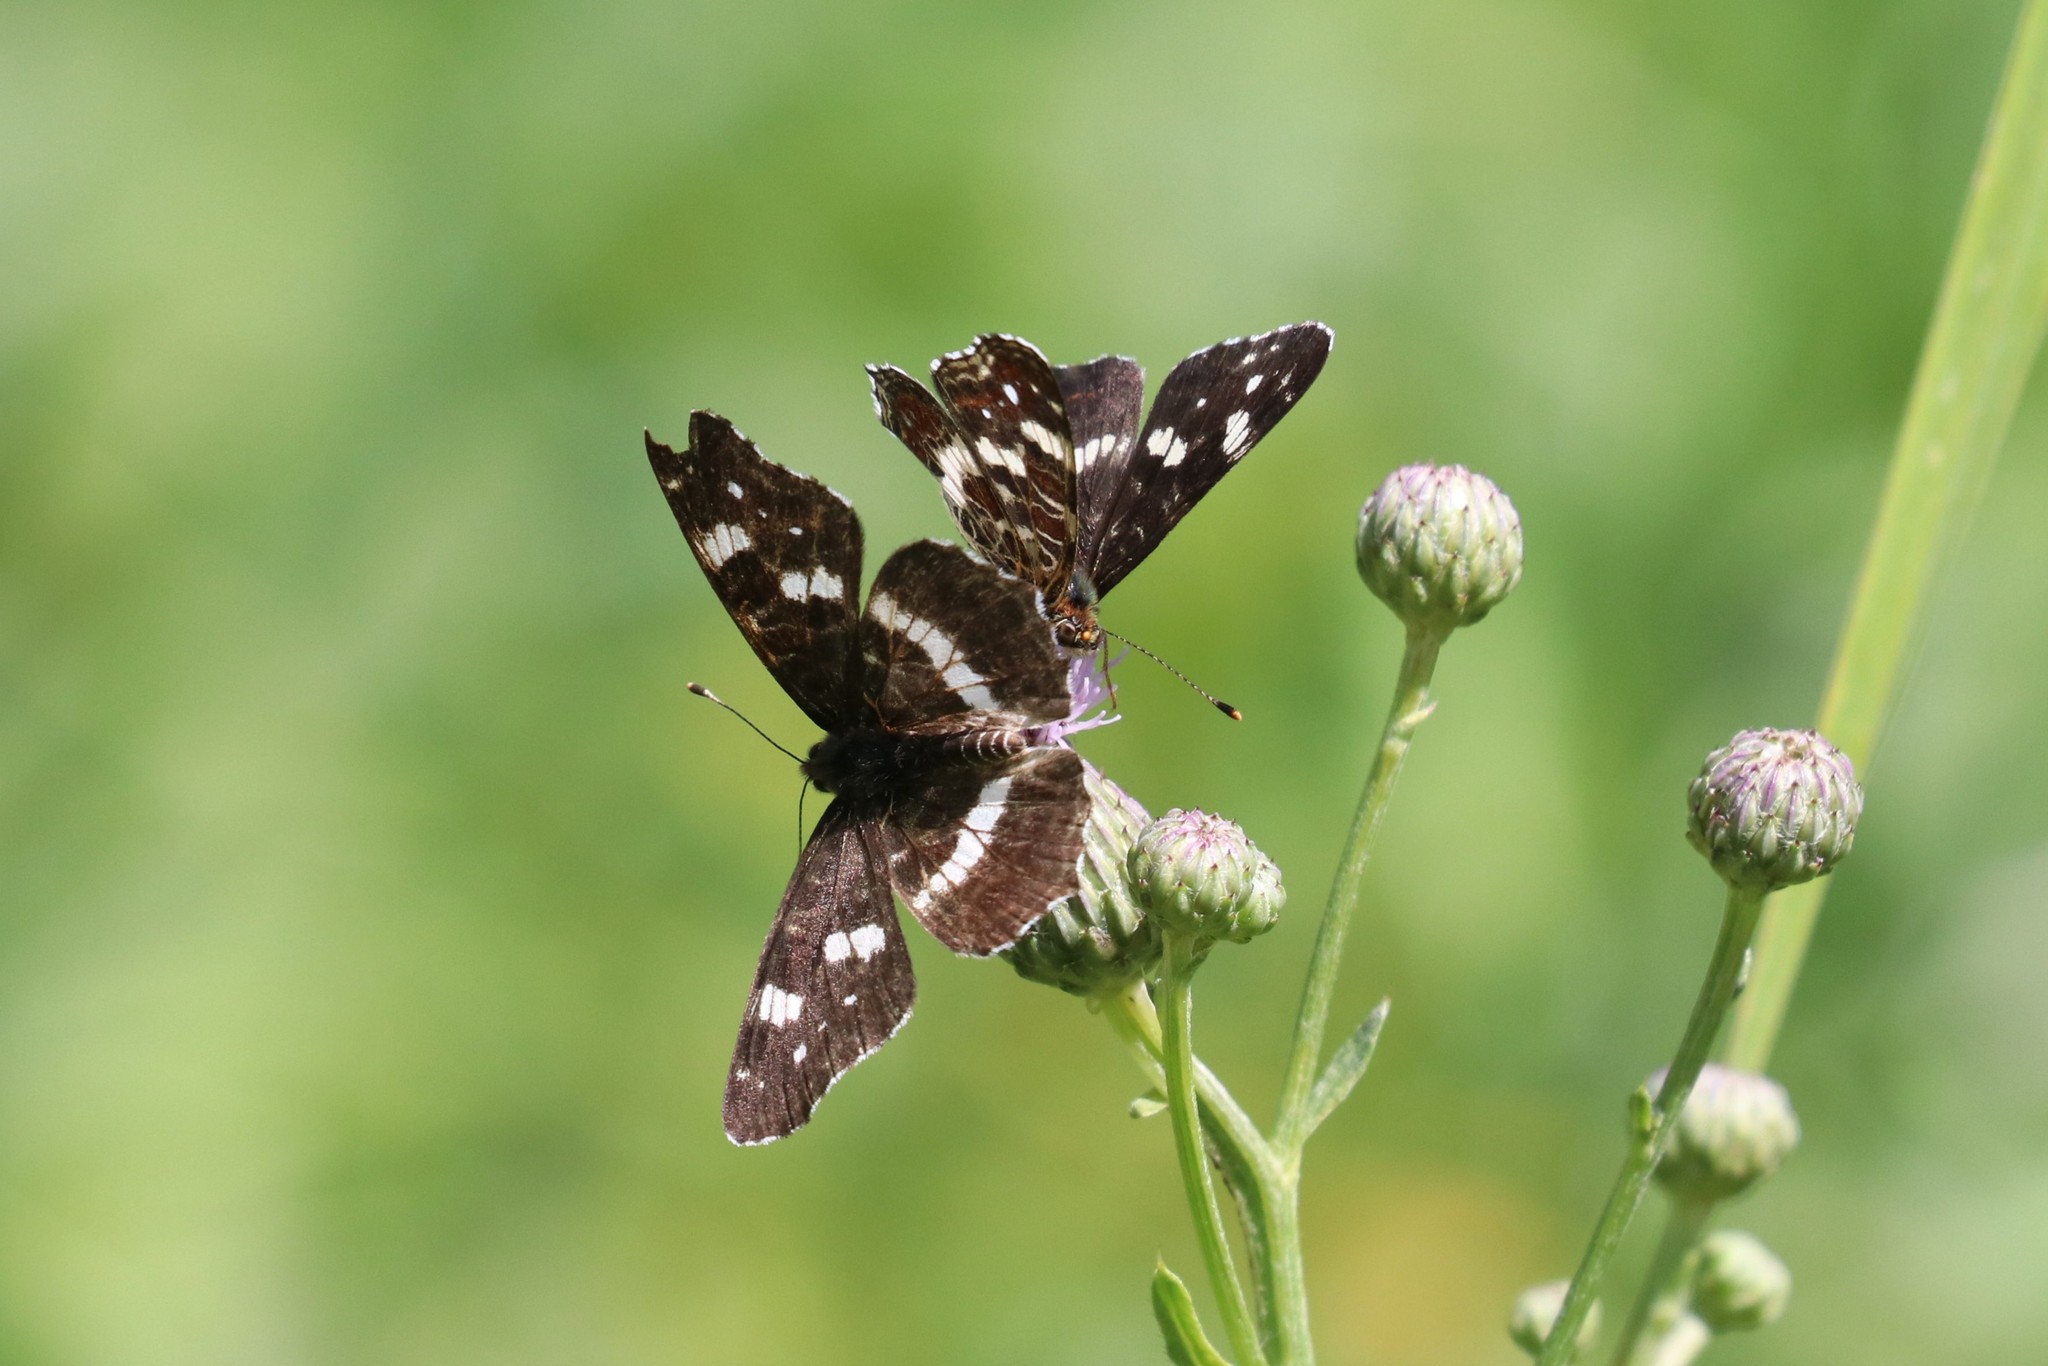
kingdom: Animalia
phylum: Arthropoda
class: Insecta
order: Lepidoptera
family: Nymphalidae
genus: Araschnia
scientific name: Araschnia levana
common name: Map butterfly
